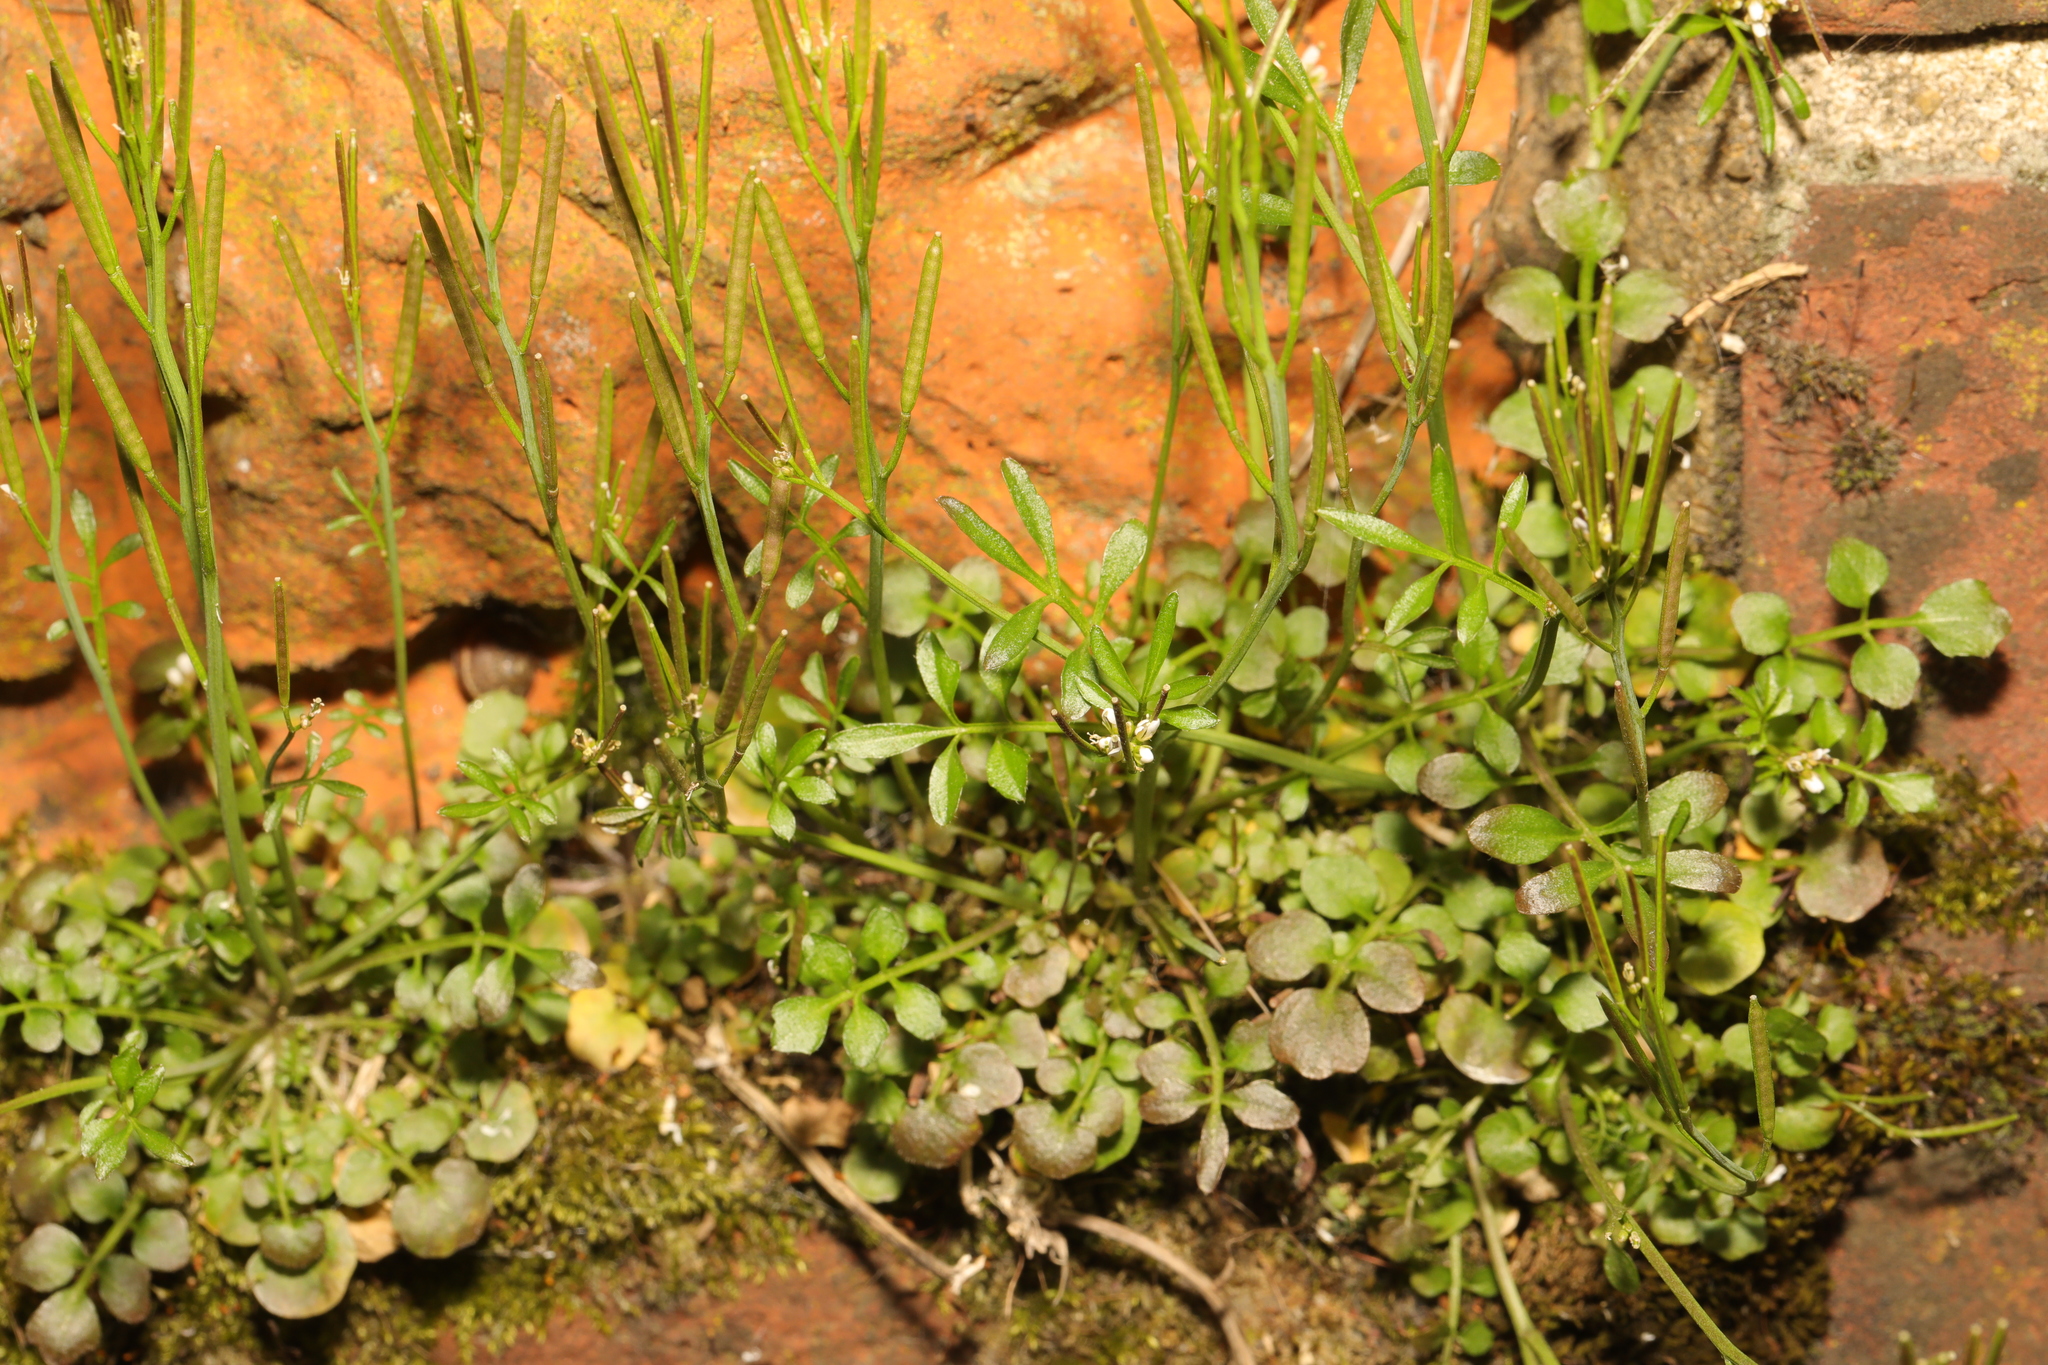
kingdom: Plantae
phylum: Tracheophyta
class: Magnoliopsida
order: Brassicales
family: Brassicaceae
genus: Cardamine
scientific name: Cardamine hirsuta
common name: Hairy bittercress
